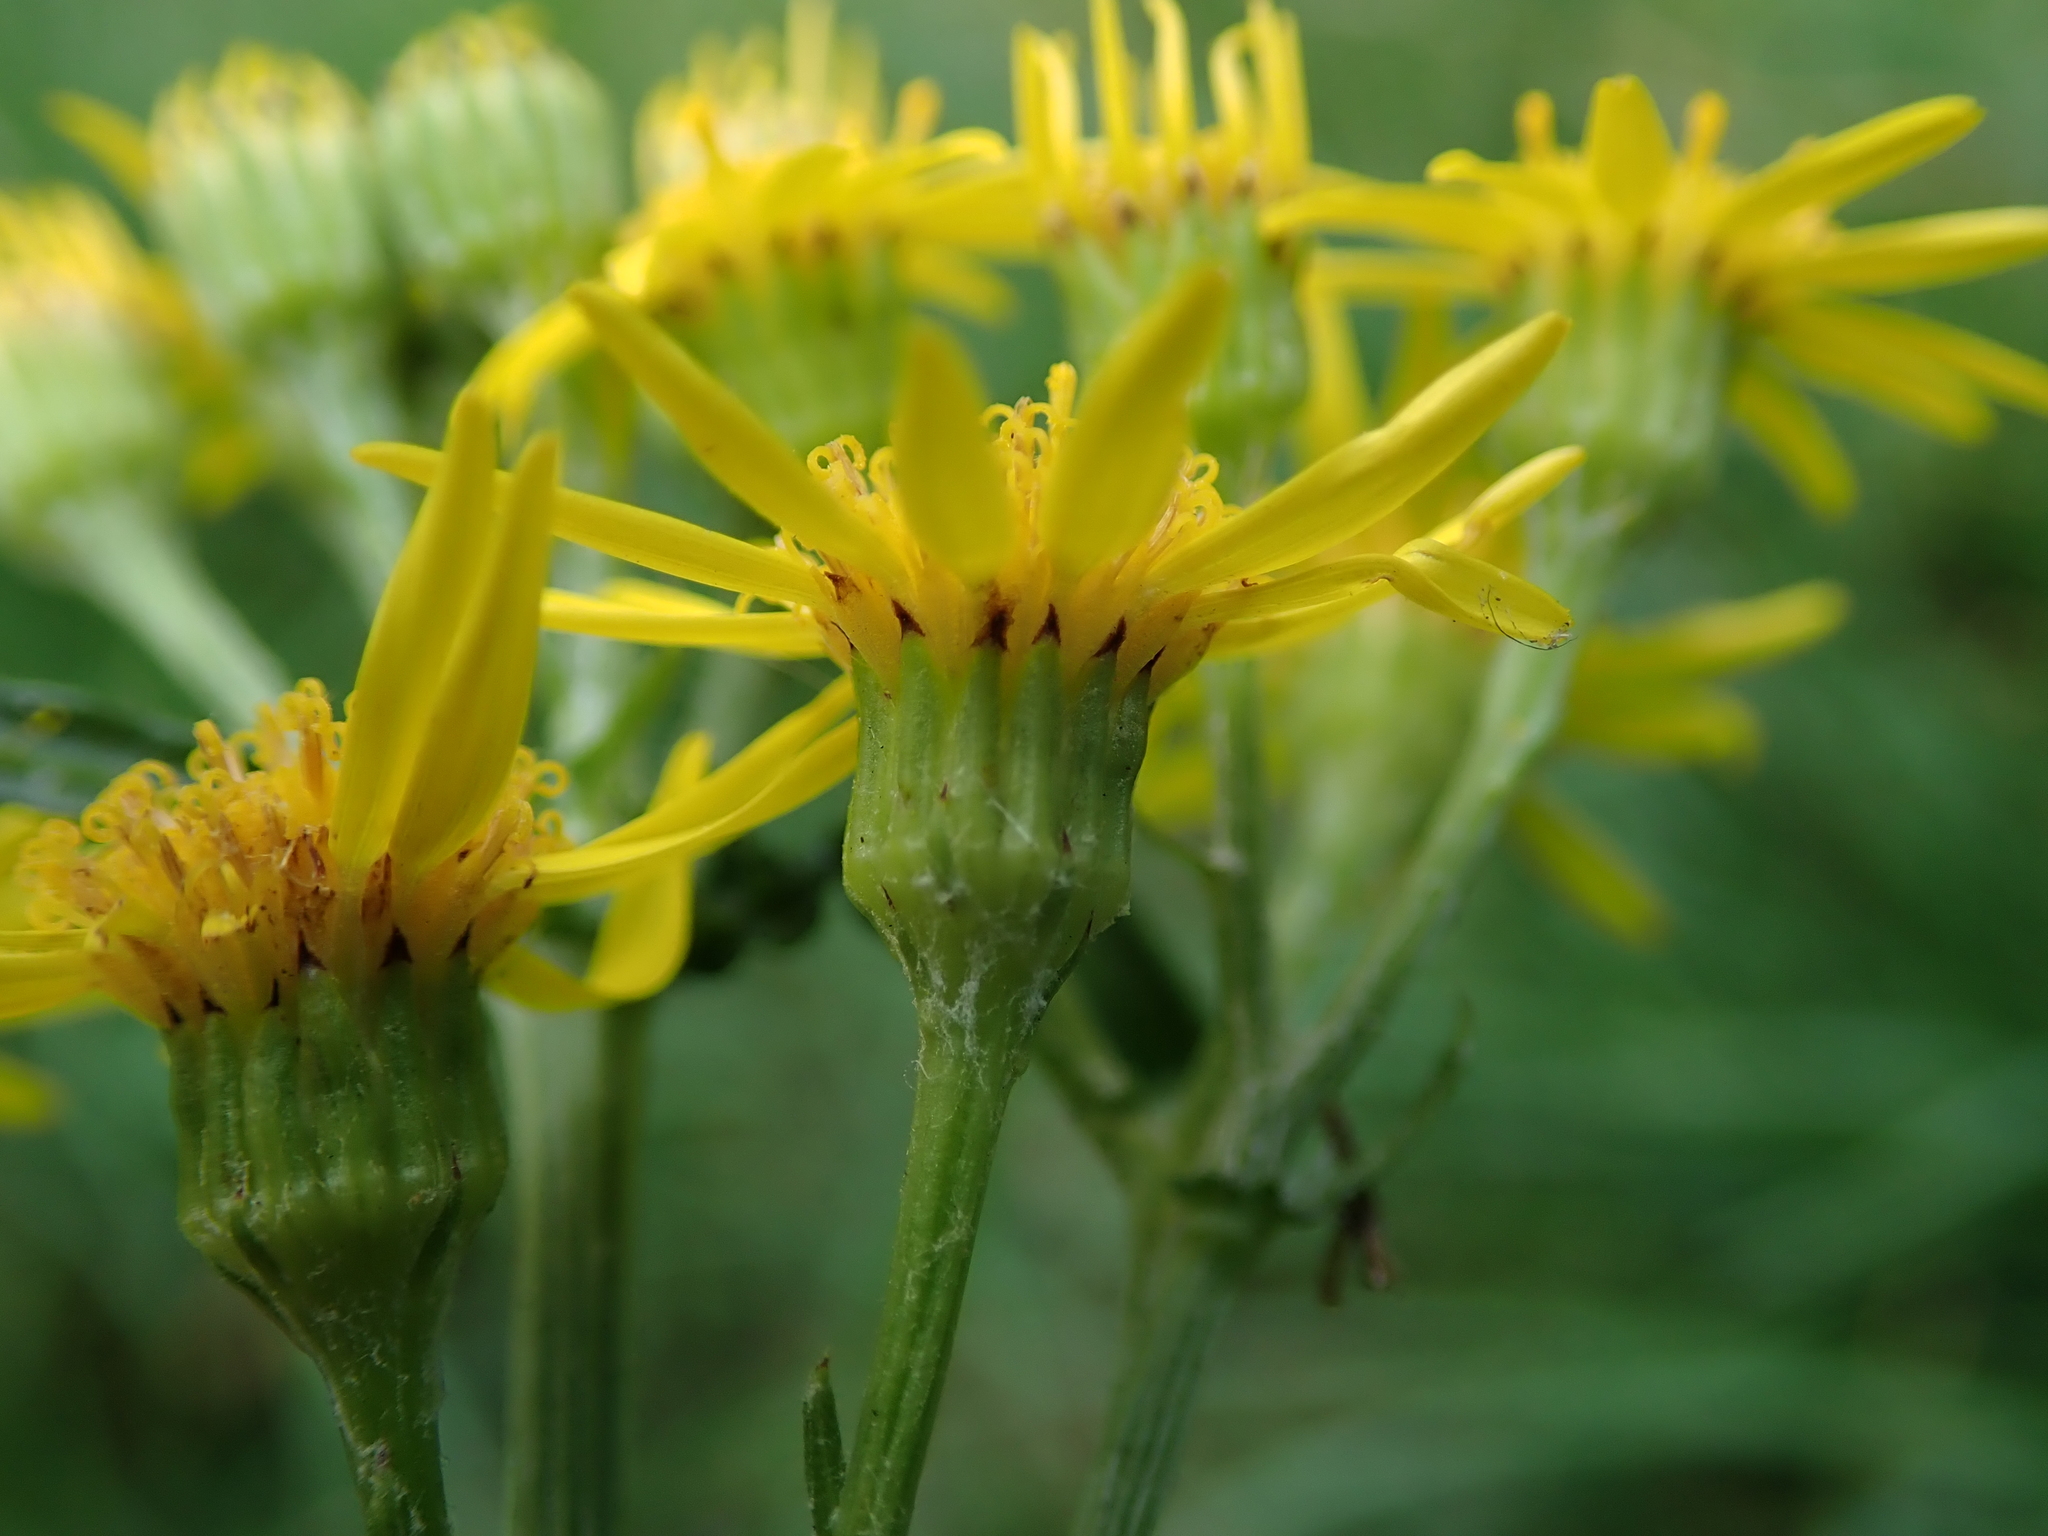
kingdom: Plantae
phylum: Tracheophyta
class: Magnoliopsida
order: Asterales
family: Asteraceae
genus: Jacobaea
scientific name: Jacobaea vulgaris
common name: Stinking willie
